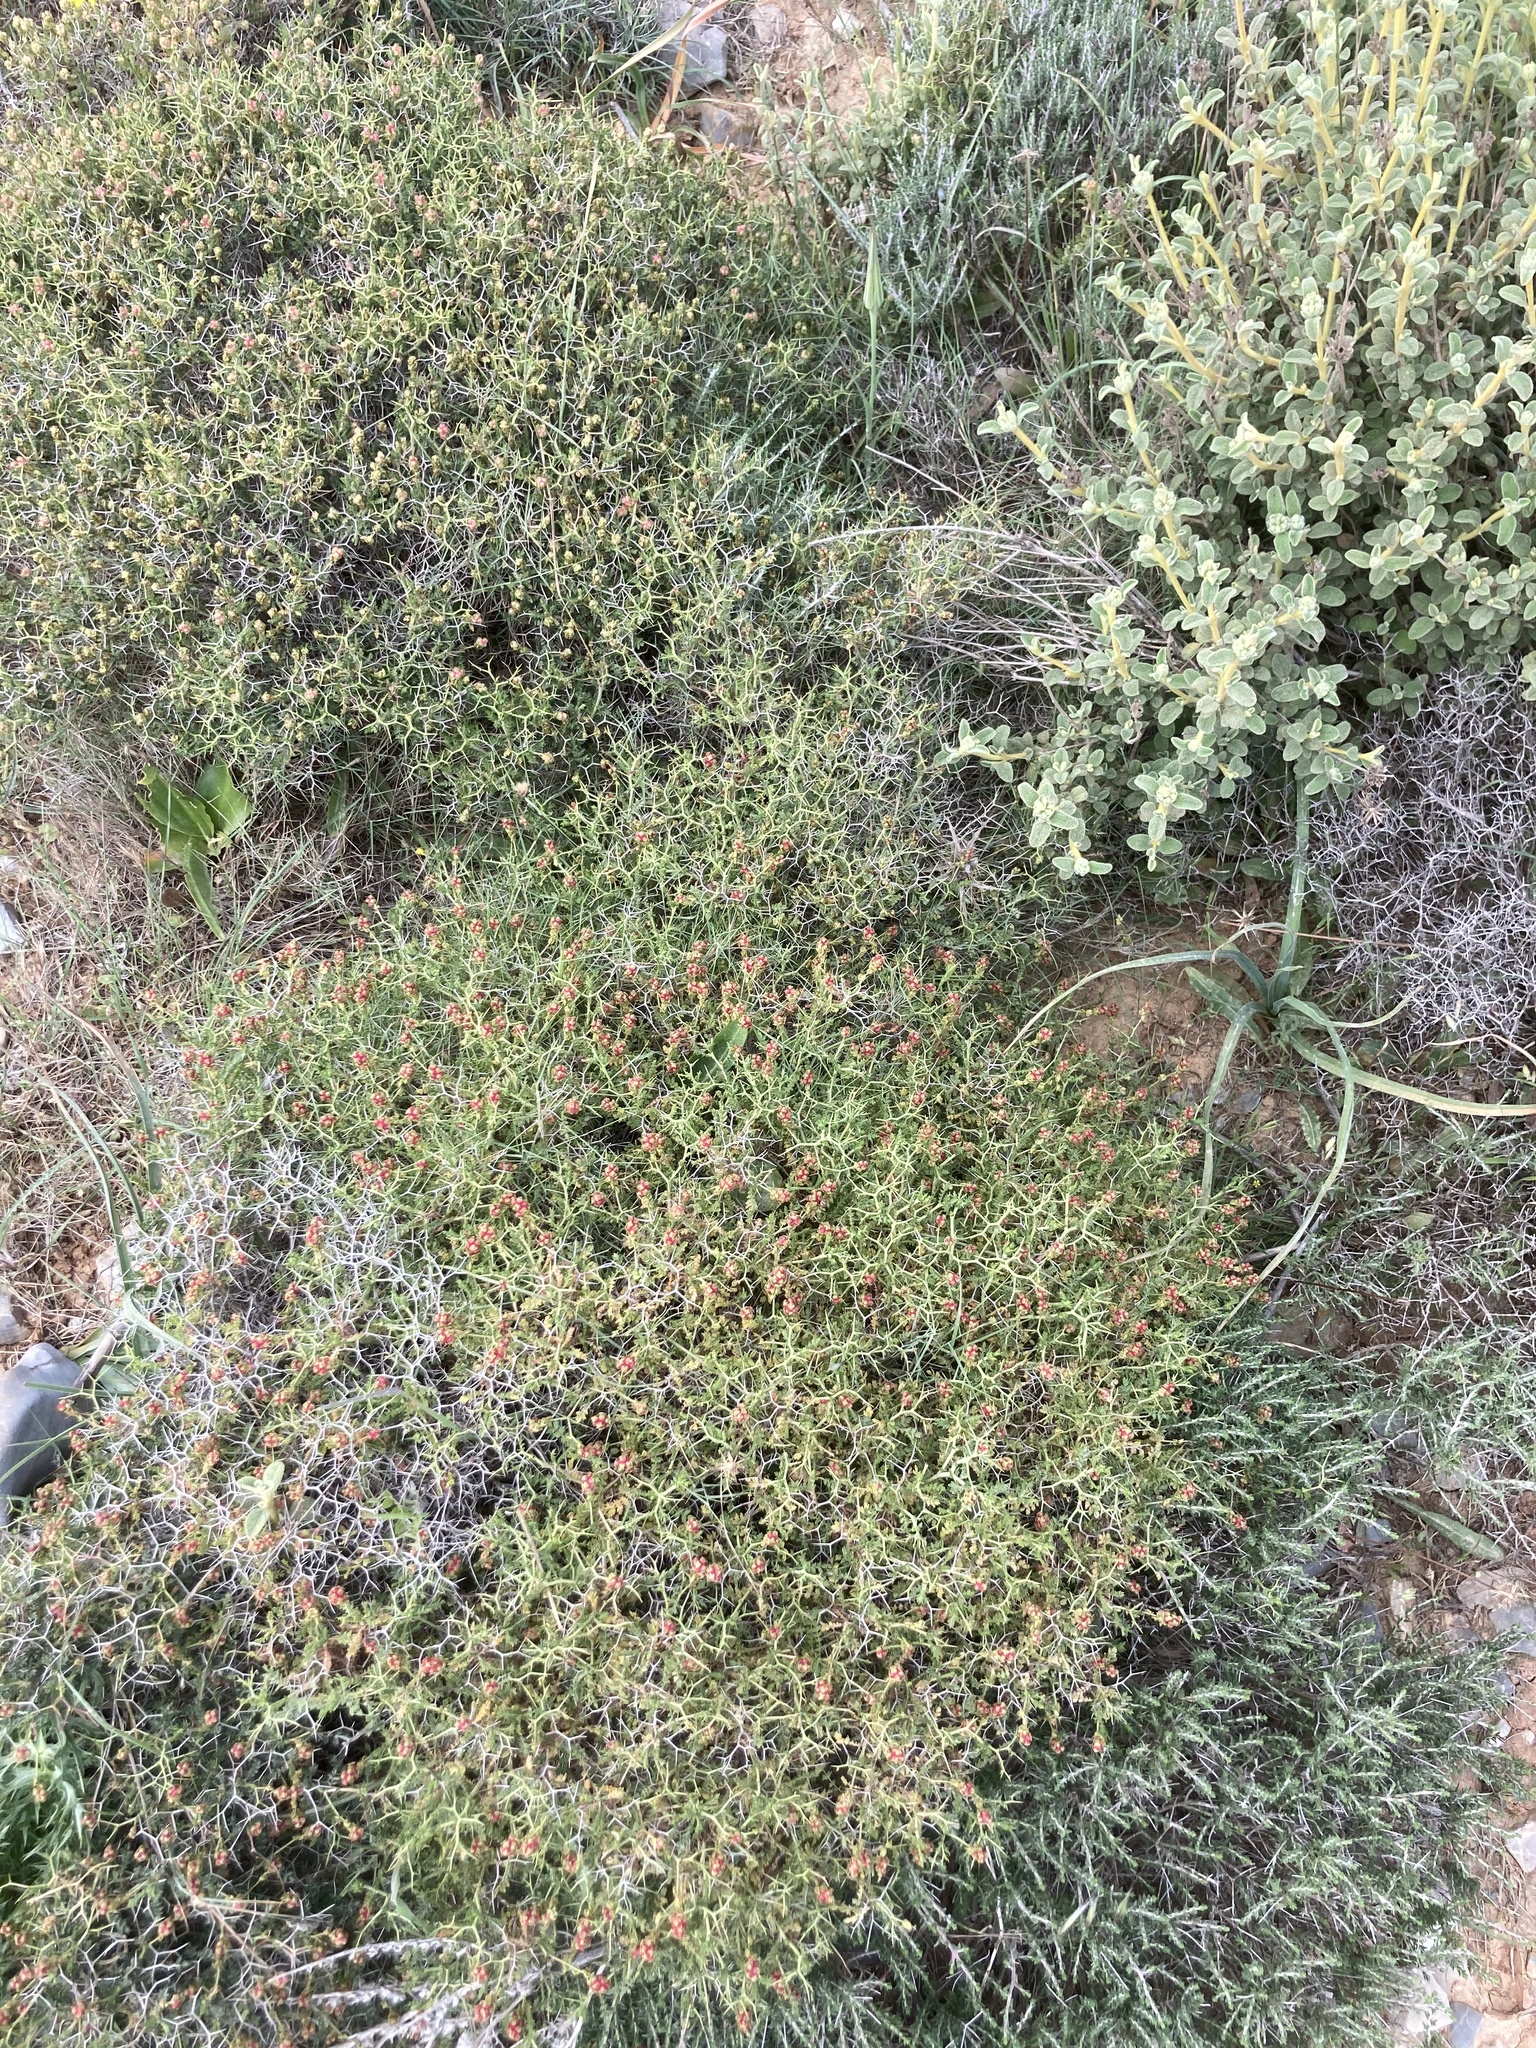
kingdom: Plantae
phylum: Tracheophyta
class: Magnoliopsida
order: Rosales
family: Rosaceae
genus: Sarcopoterium
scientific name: Sarcopoterium spinosum
